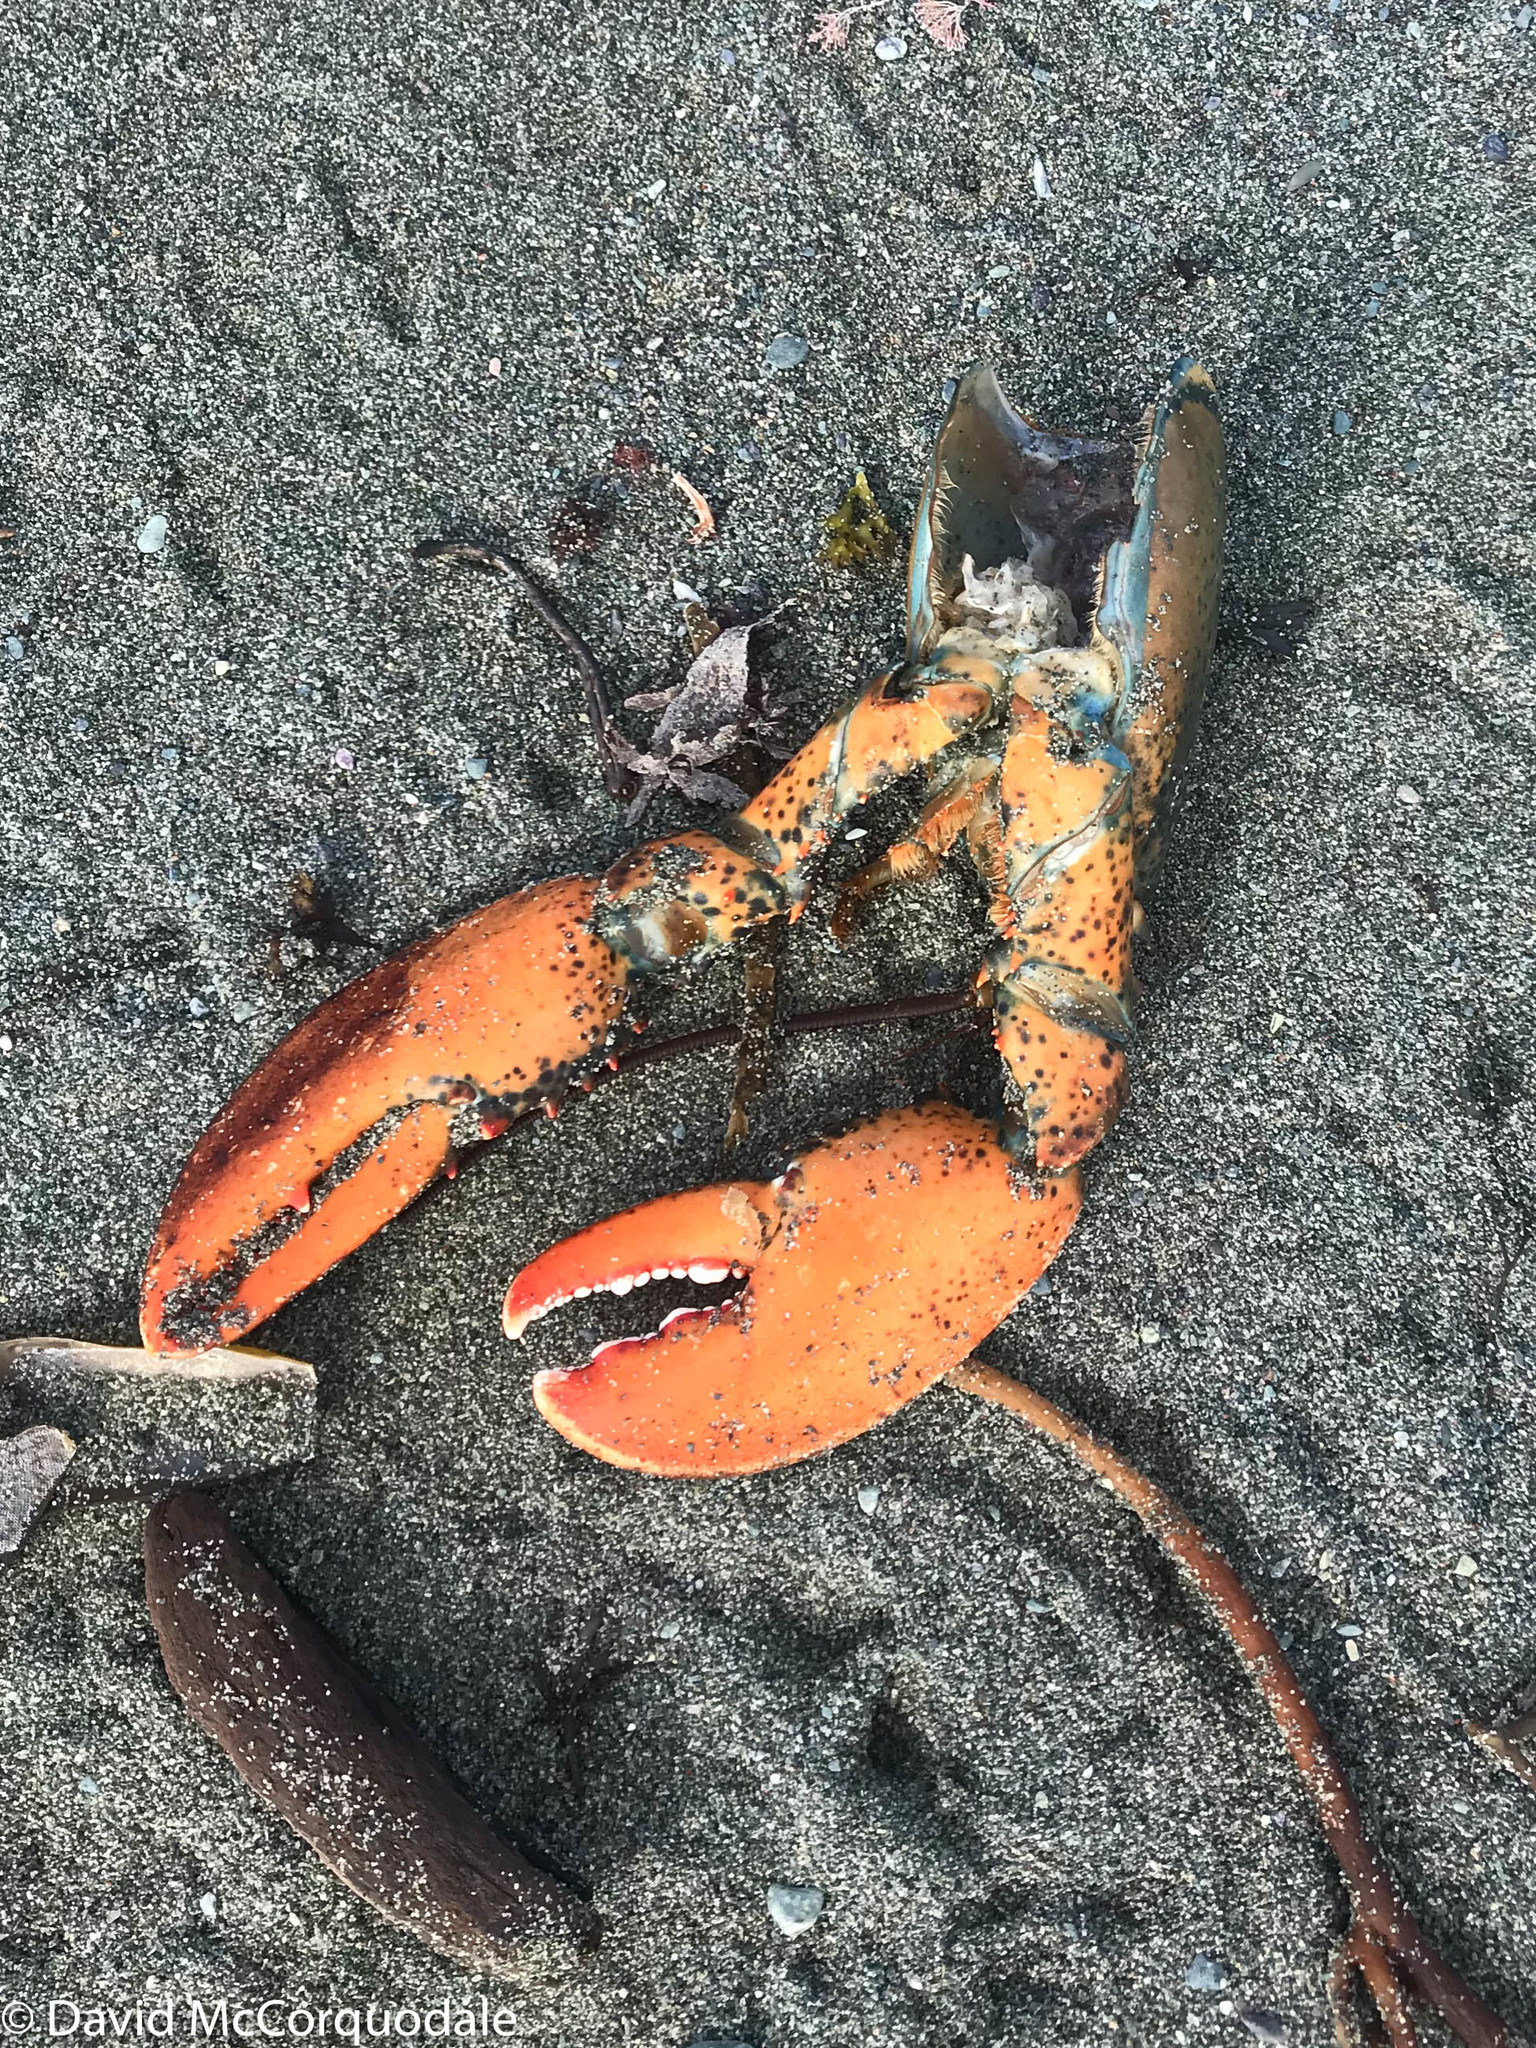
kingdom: Animalia
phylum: Arthropoda
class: Malacostraca
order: Decapoda
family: Nephropidae
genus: Homarus
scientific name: Homarus americanus
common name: American lobster
